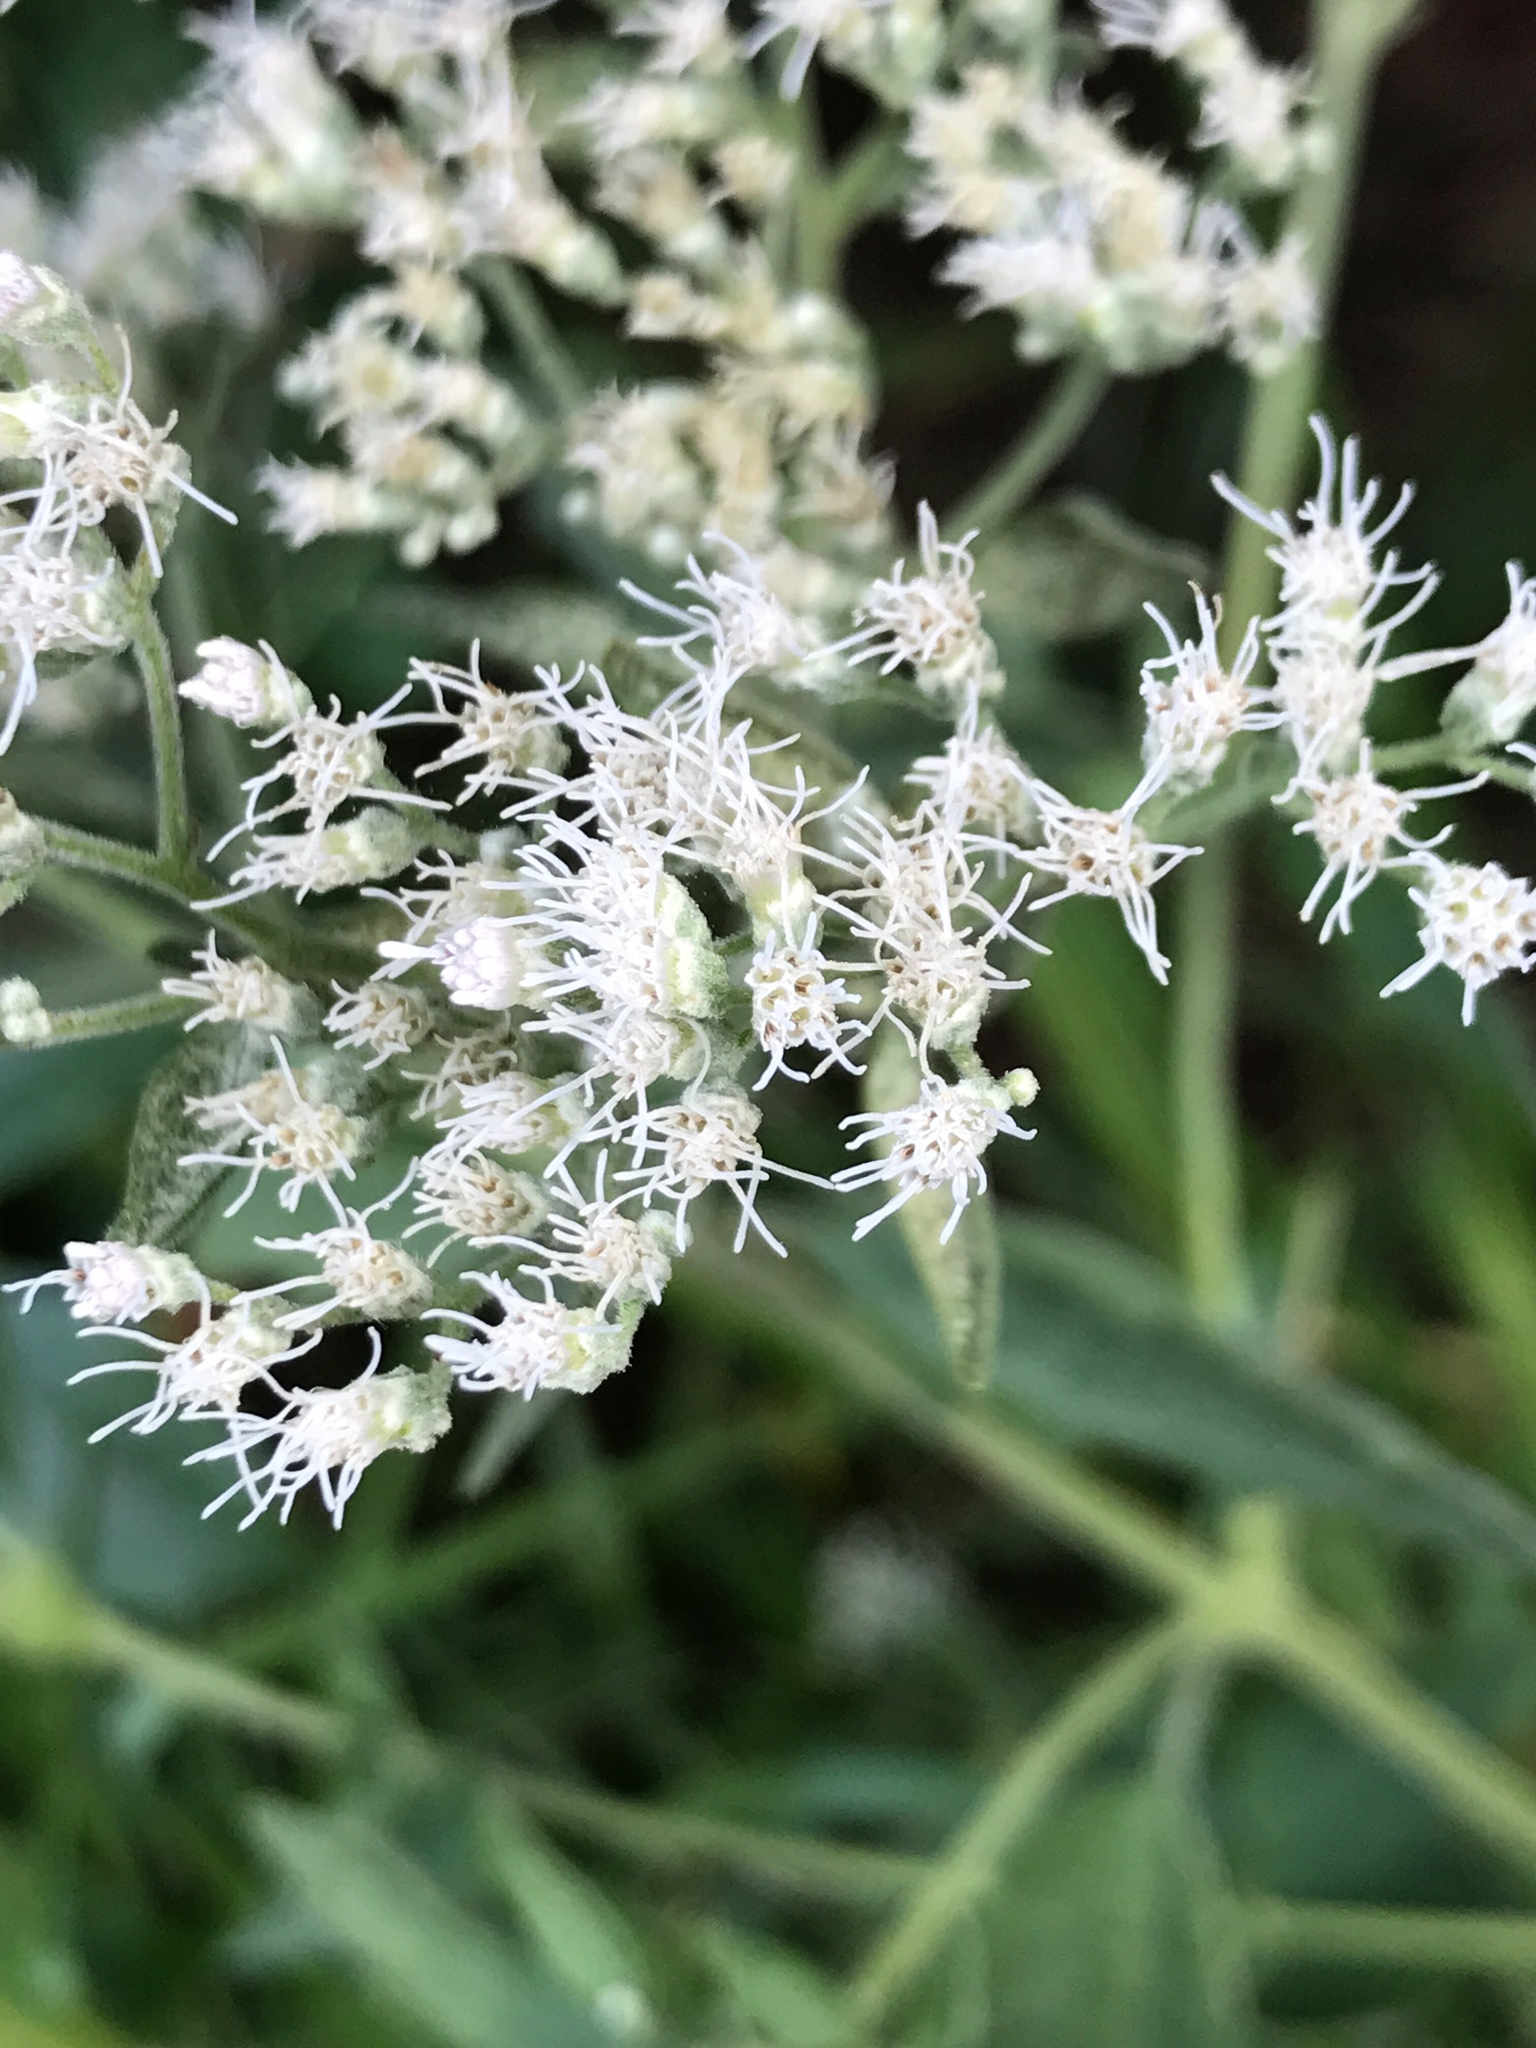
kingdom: Plantae
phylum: Tracheophyta
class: Magnoliopsida
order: Asterales
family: Asteraceae
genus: Eupatorium
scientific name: Eupatorium serotinum
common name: Late boneset
